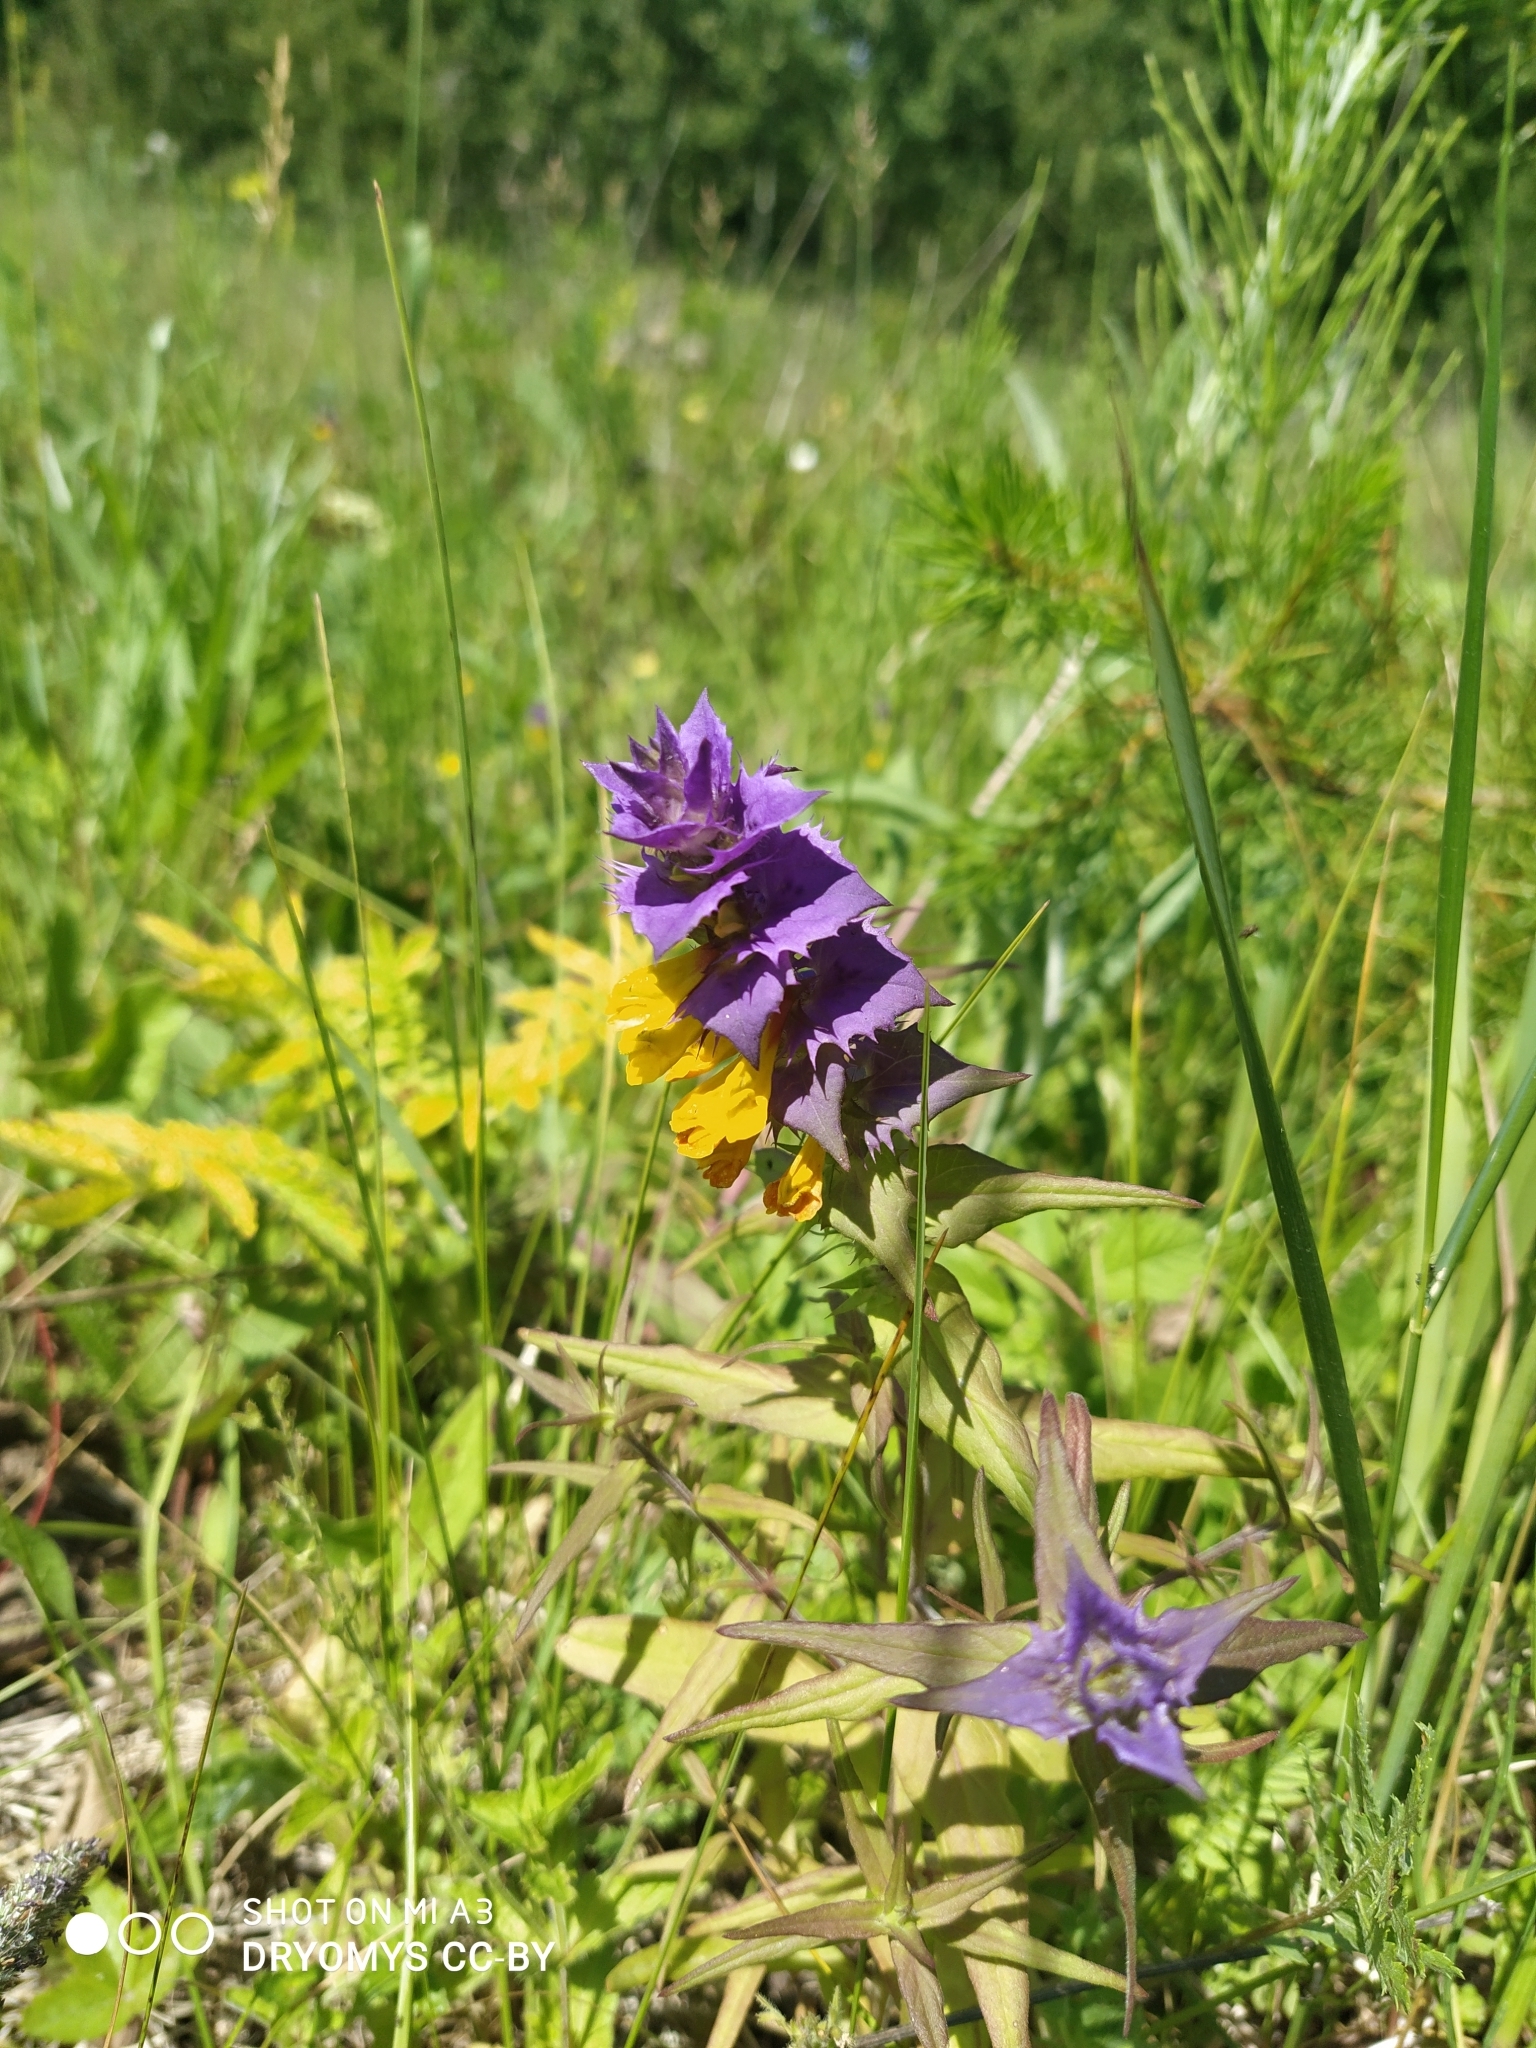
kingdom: Plantae
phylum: Tracheophyta
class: Magnoliopsida
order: Lamiales
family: Orobanchaceae
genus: Melampyrum
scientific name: Melampyrum nemorosum
